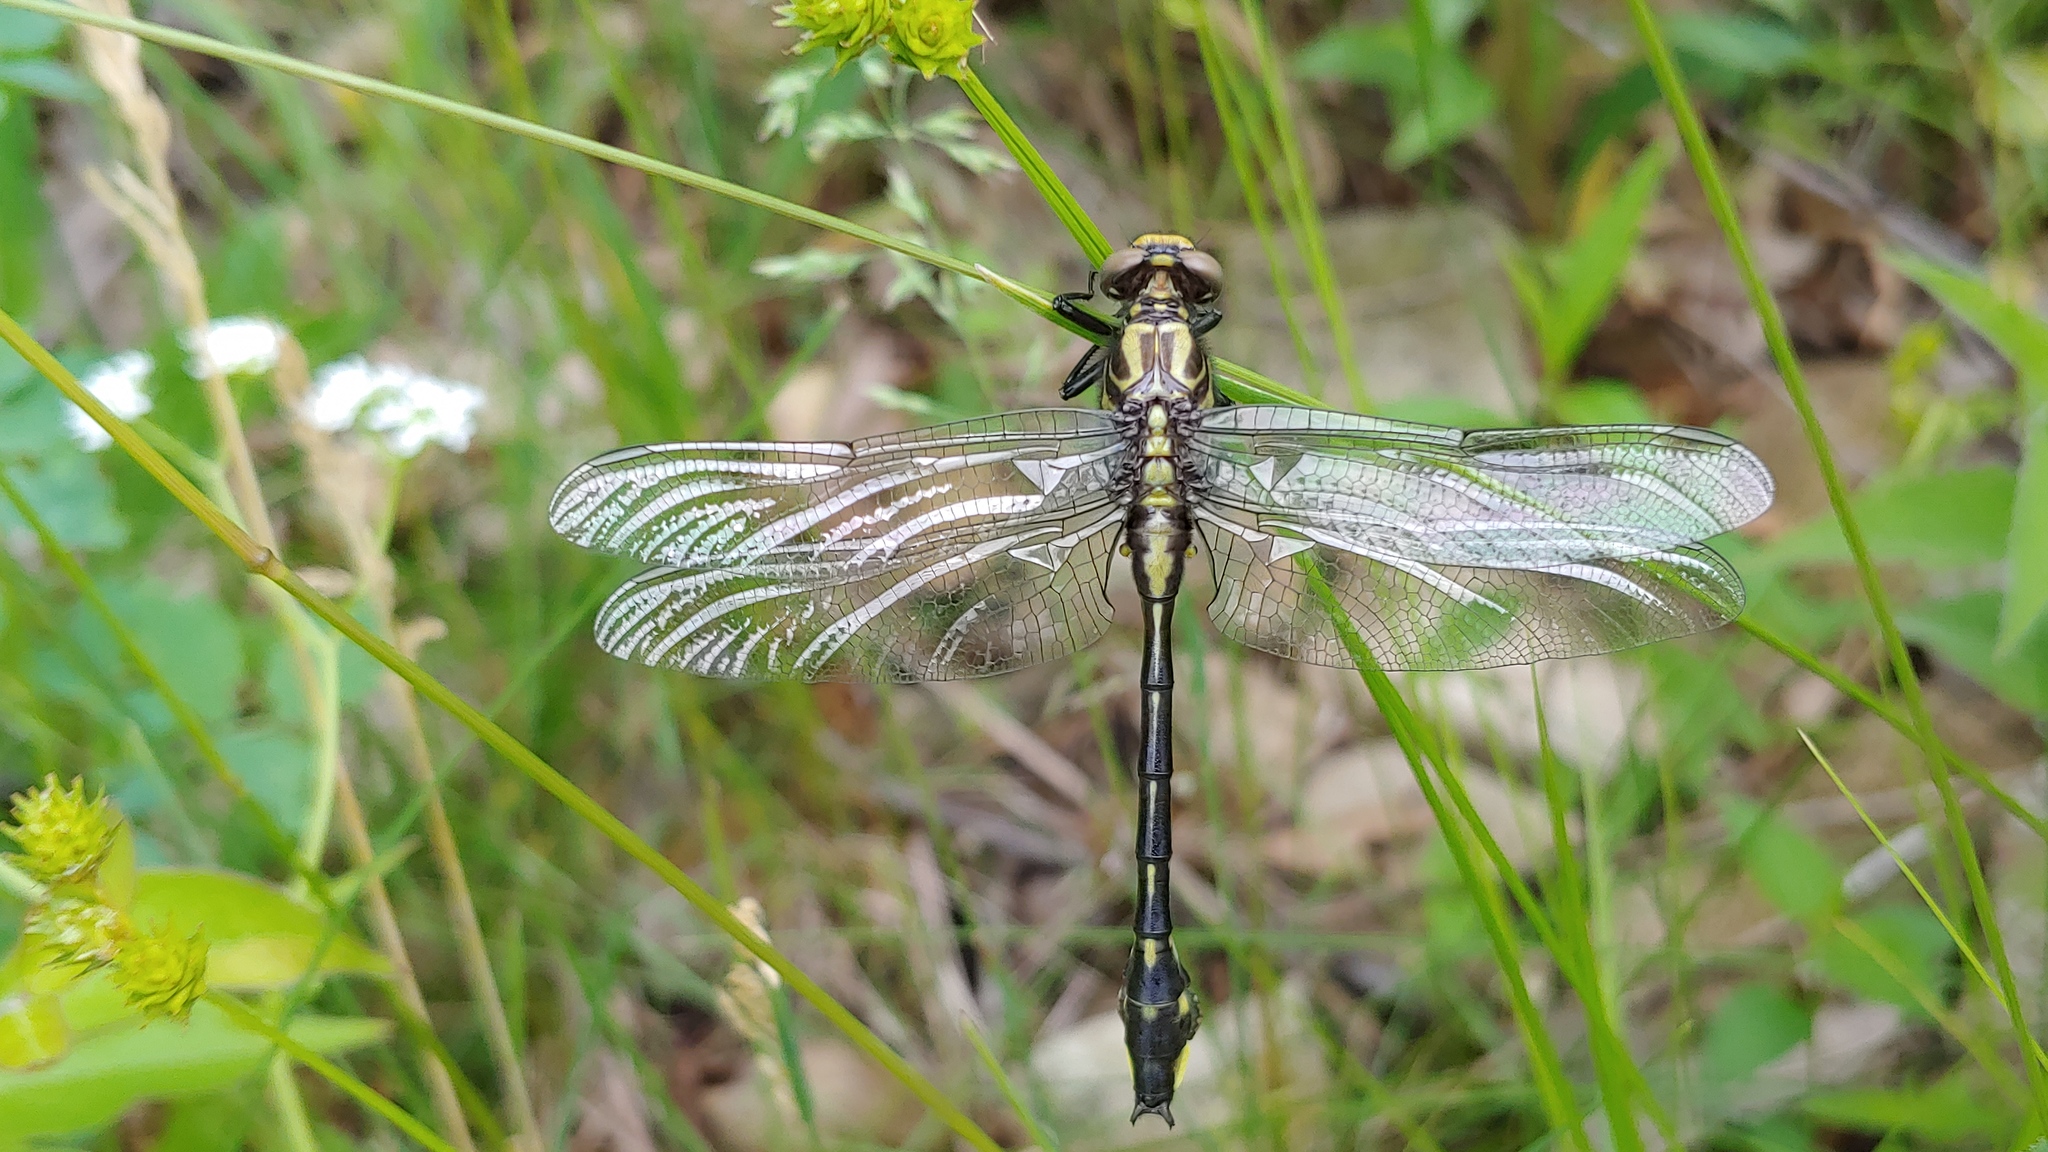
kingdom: Animalia
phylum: Arthropoda
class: Insecta
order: Odonata
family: Gomphidae
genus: Gomphurus
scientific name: Gomphurus vastus
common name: Cobra clubtail
